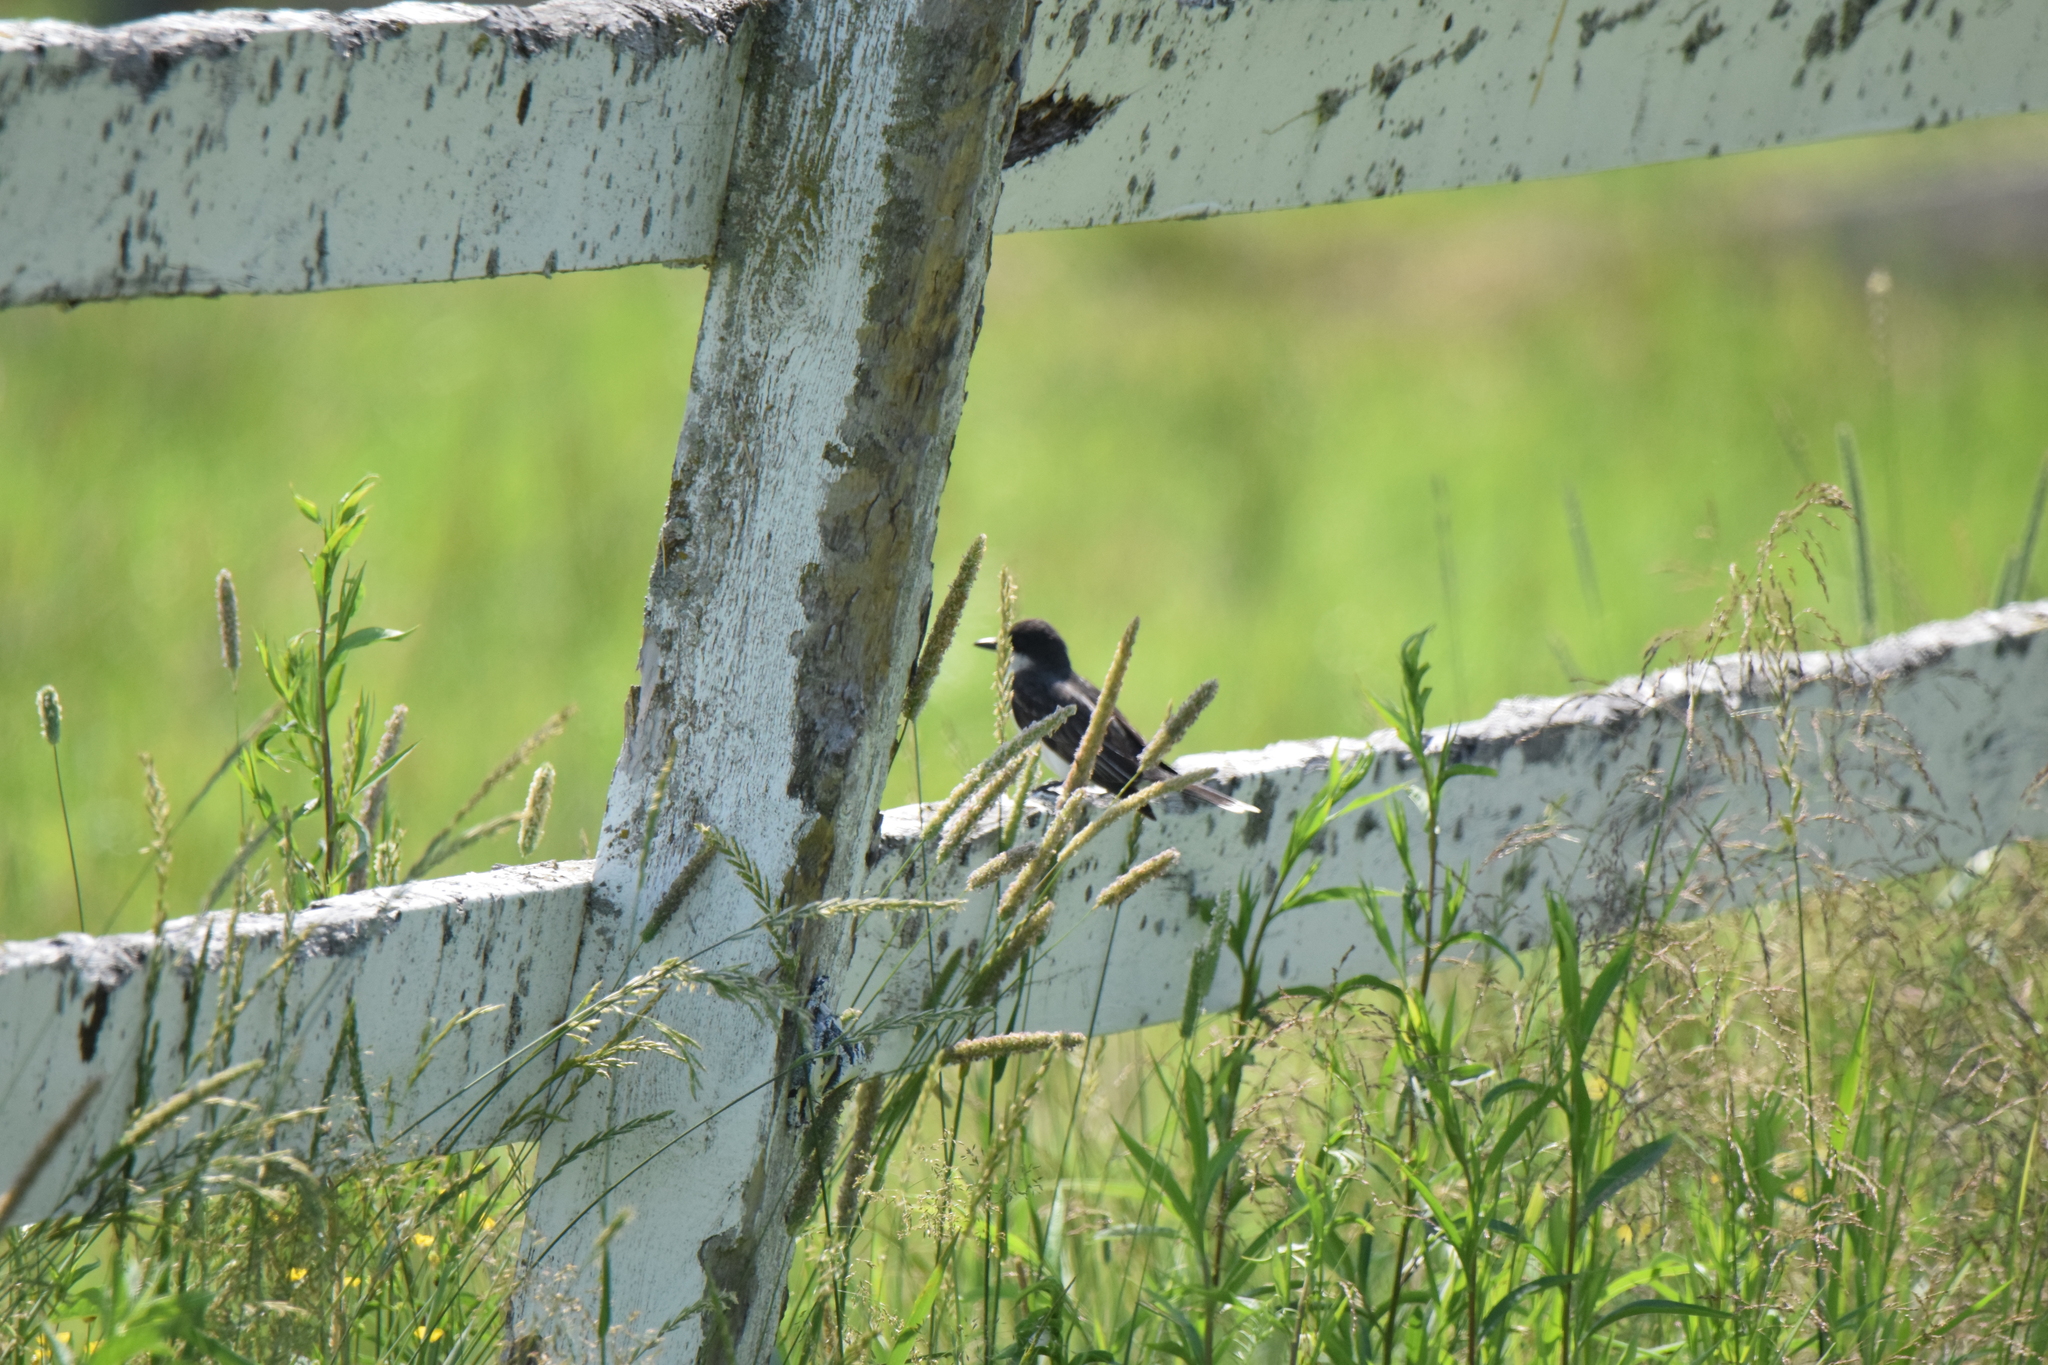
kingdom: Animalia
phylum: Chordata
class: Aves
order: Passeriformes
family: Tyrannidae
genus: Tyrannus
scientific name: Tyrannus tyrannus
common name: Eastern kingbird
